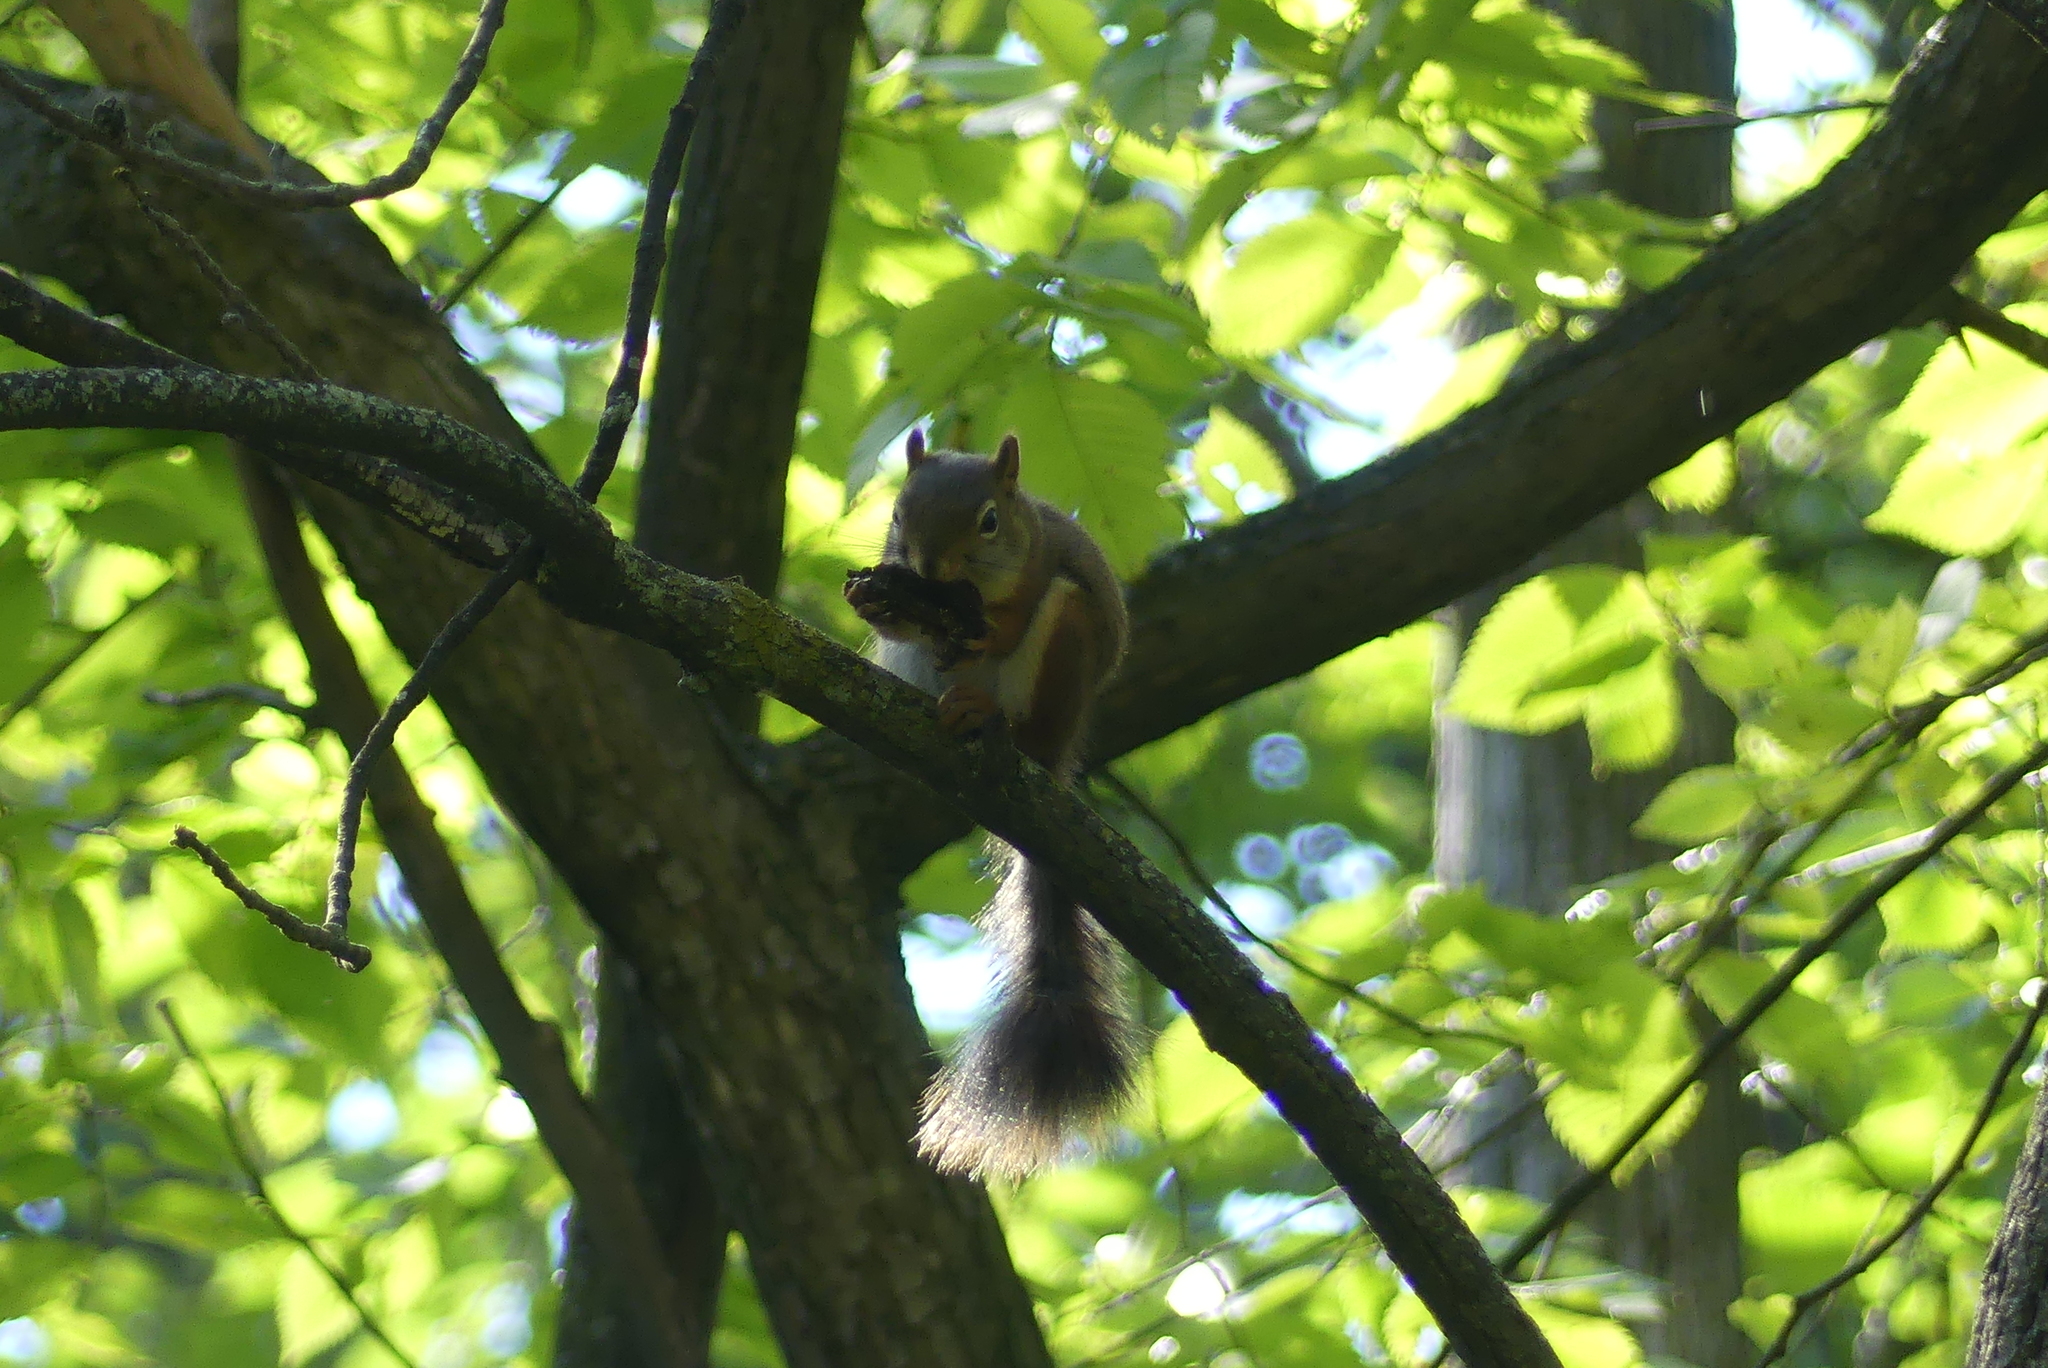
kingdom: Animalia
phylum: Chordata
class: Mammalia
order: Rodentia
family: Sciuridae
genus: Tamiasciurus
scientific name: Tamiasciurus hudsonicus
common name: Red squirrel
